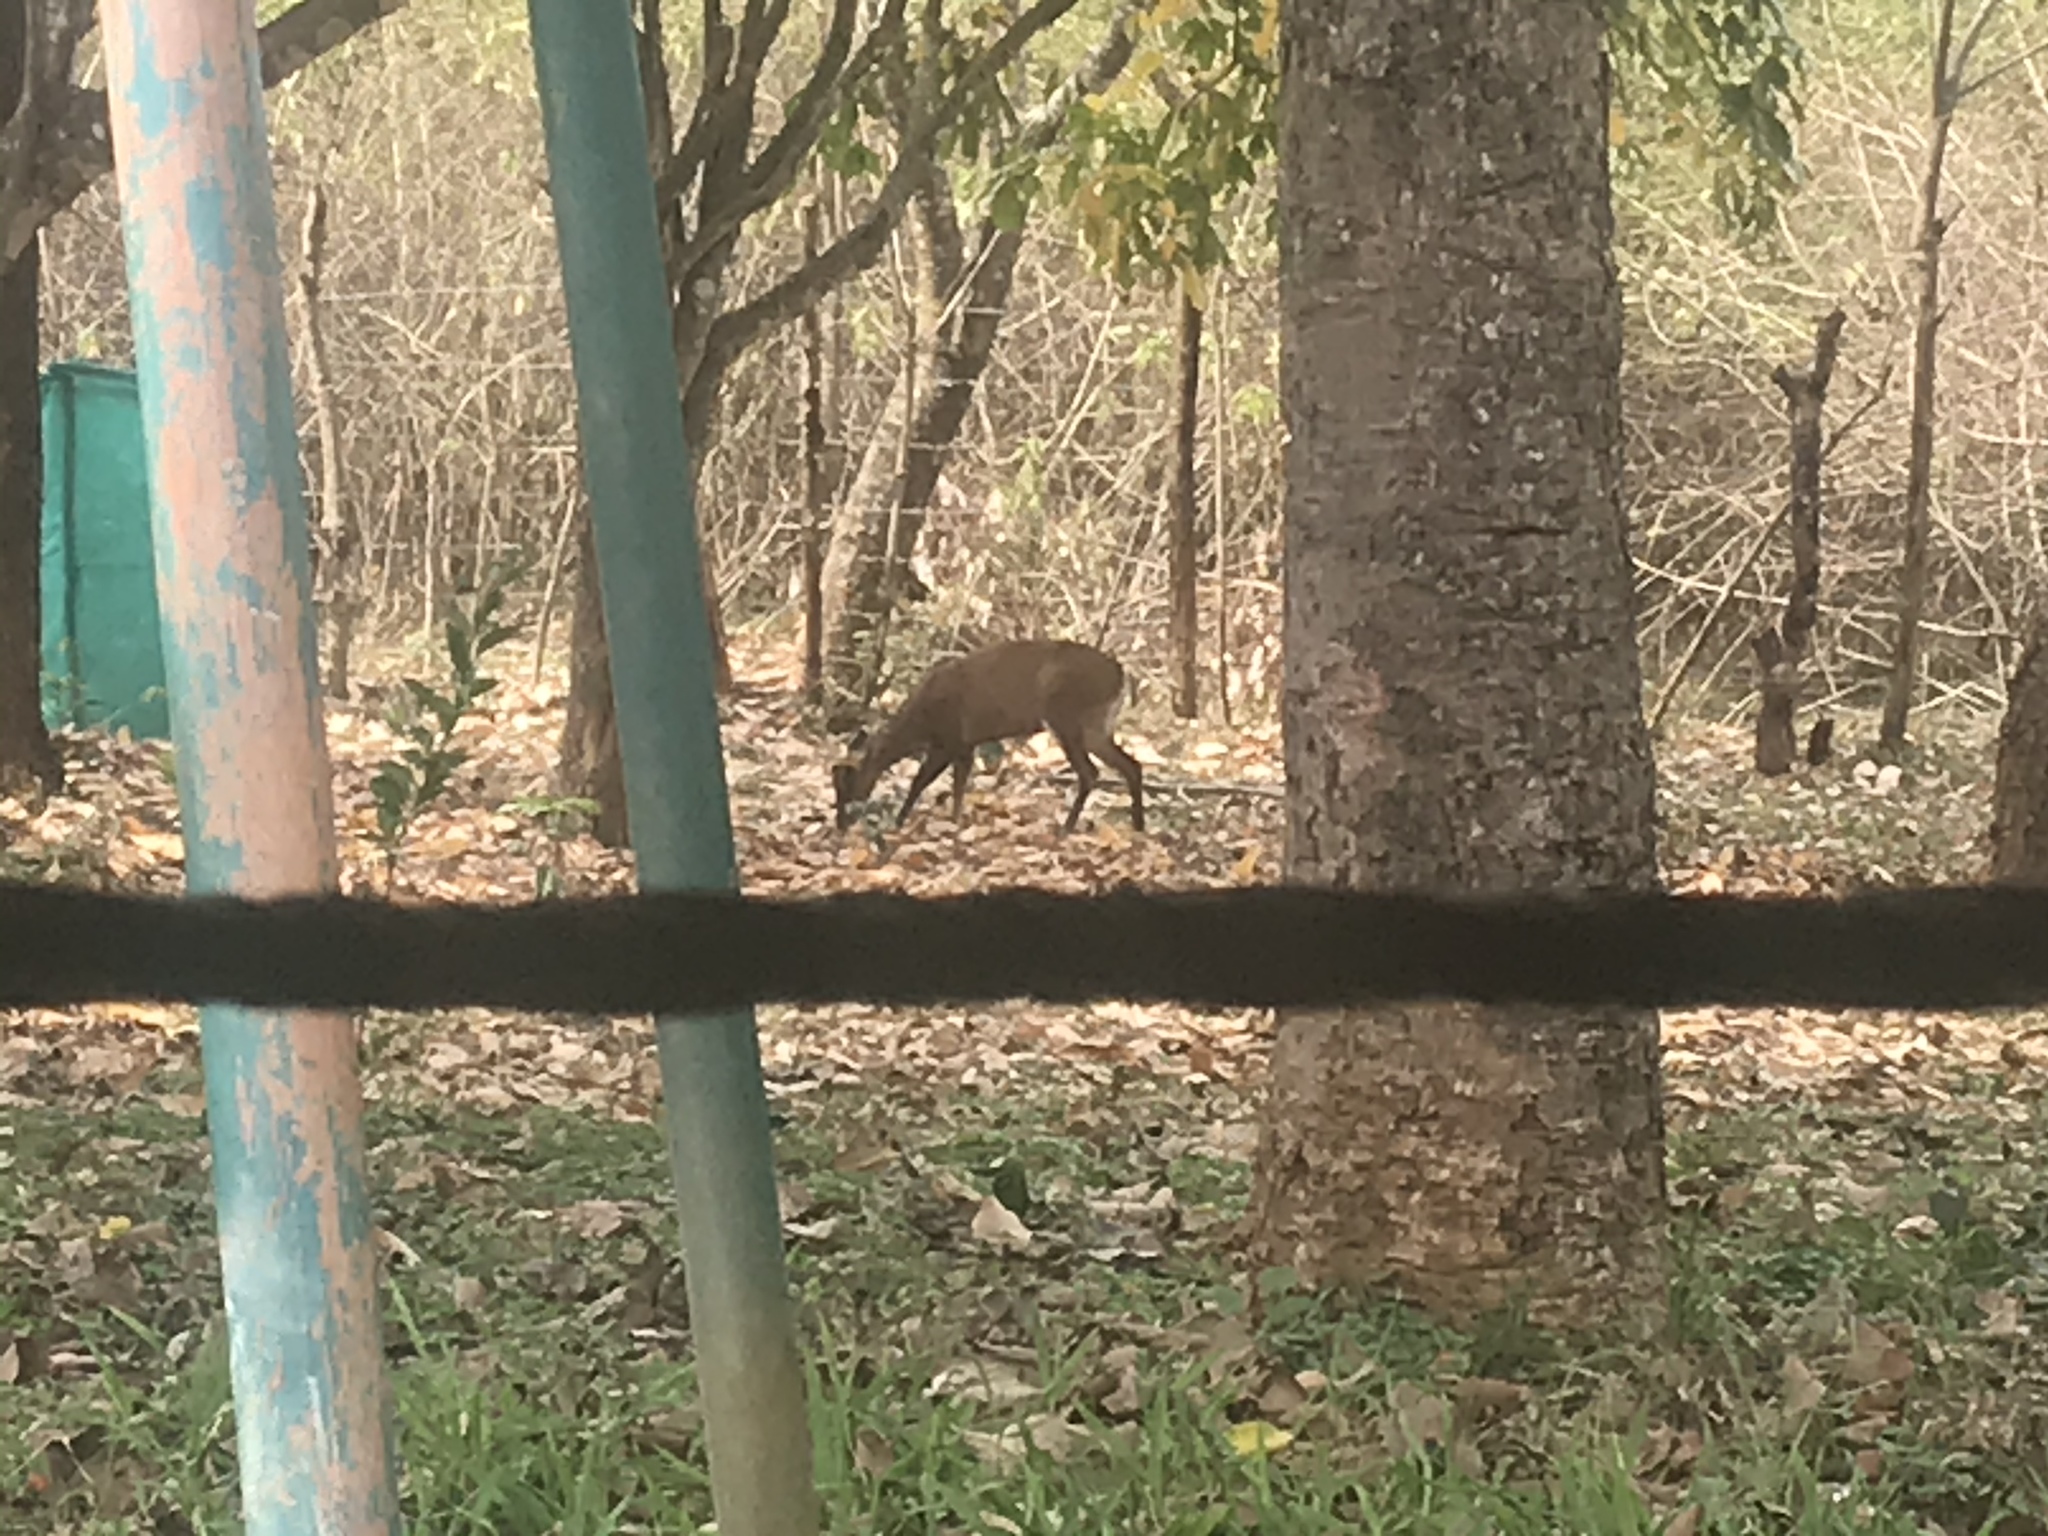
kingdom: Animalia
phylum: Chordata
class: Mammalia
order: Artiodactyla
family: Cervidae
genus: Muntiacus
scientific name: Muntiacus muntjak
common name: Indian muntjac
